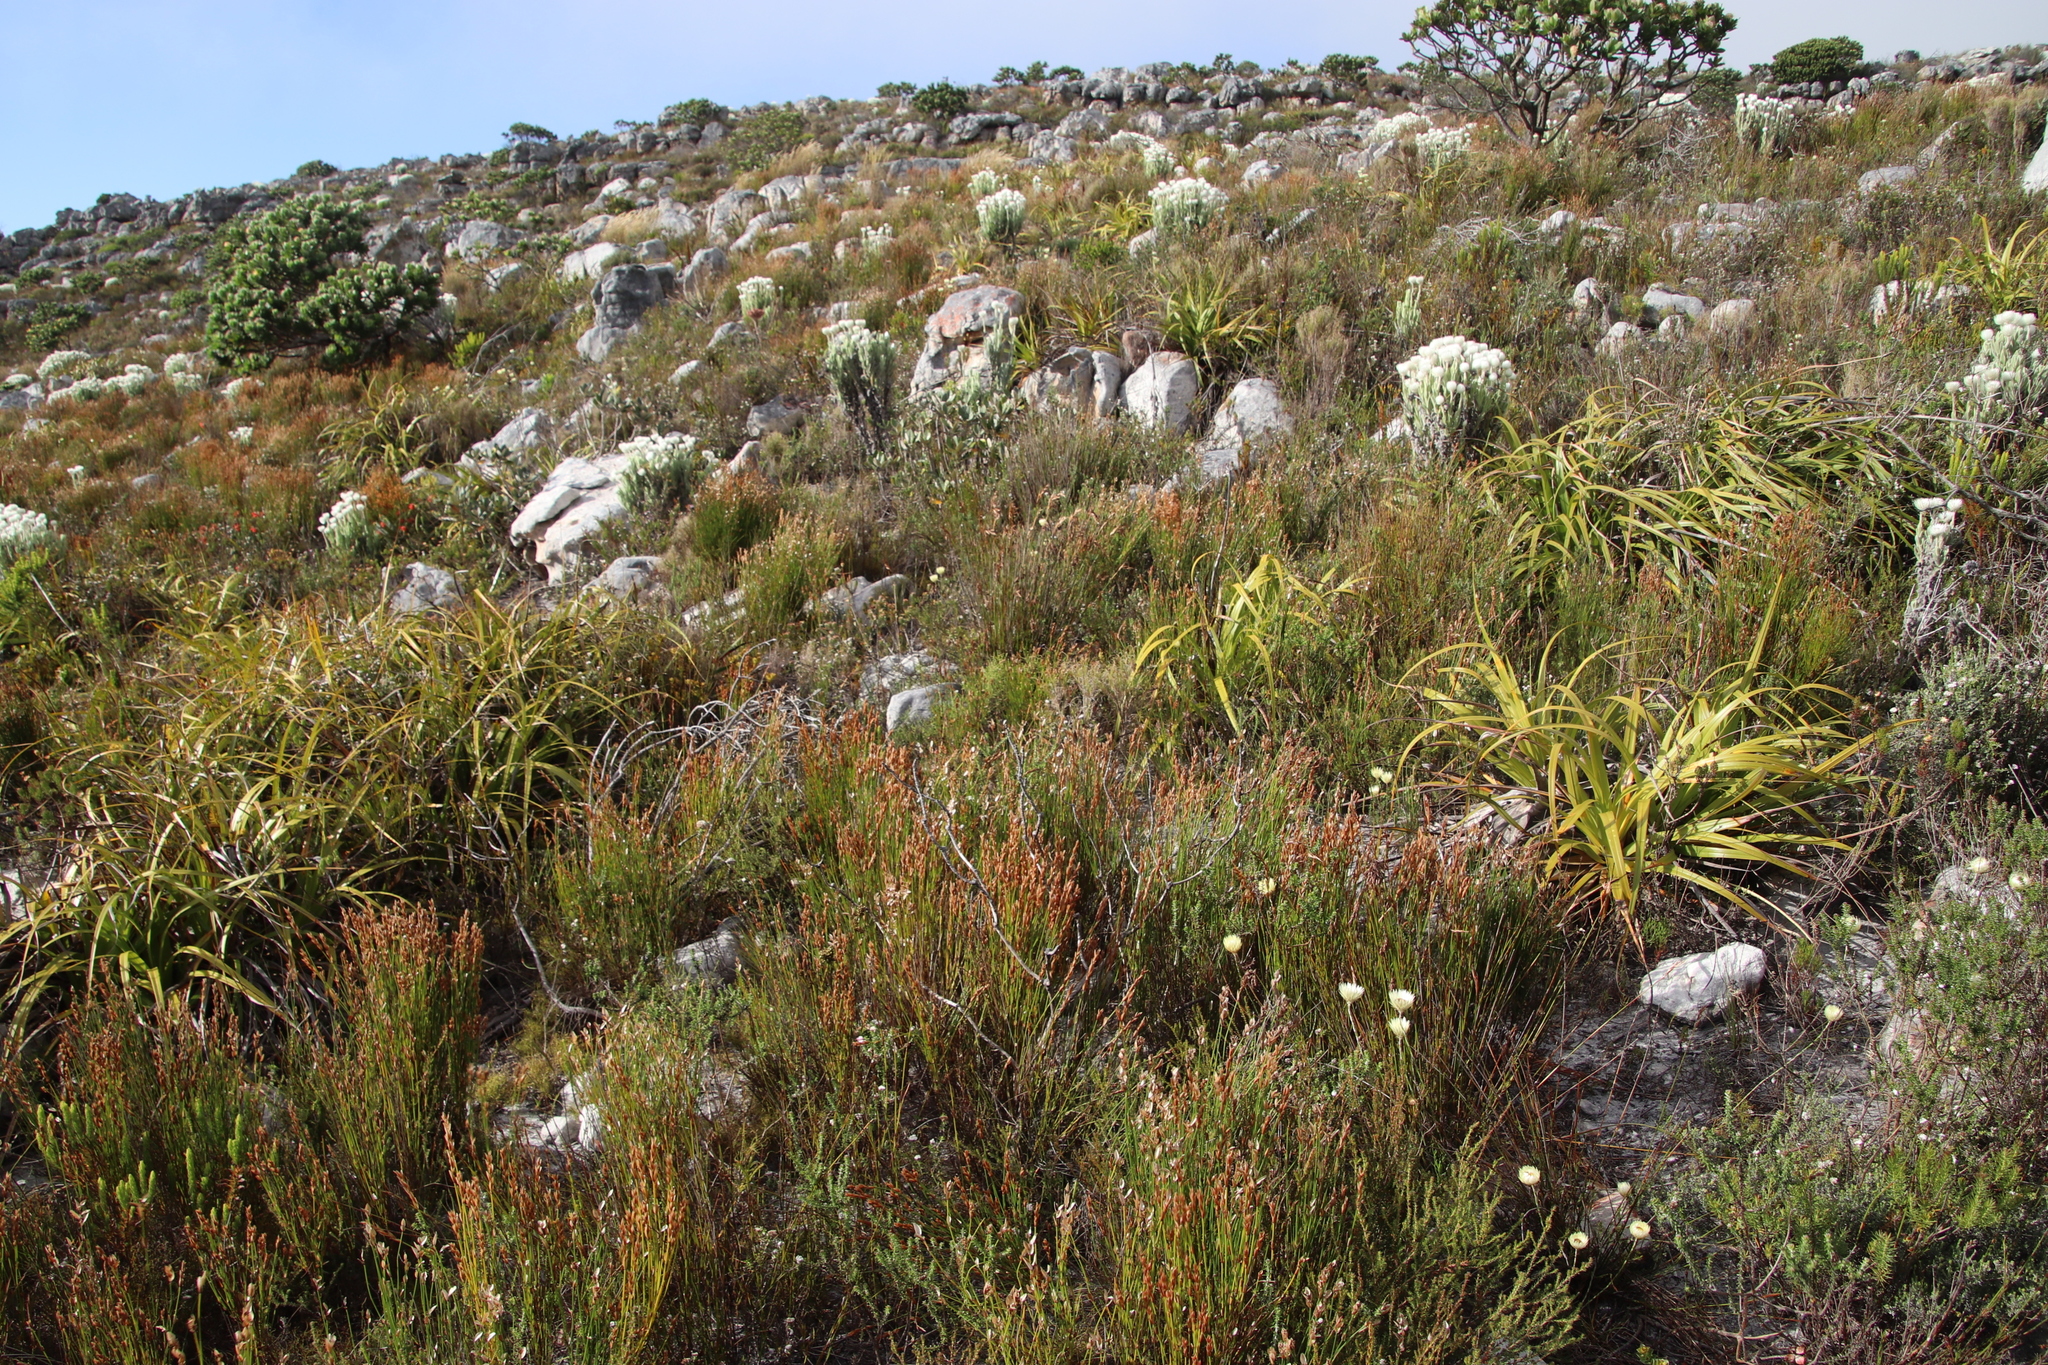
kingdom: Plantae
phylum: Tracheophyta
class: Liliopsida
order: Poales
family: Restionaceae
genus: Elegia
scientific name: Elegia stipularis
